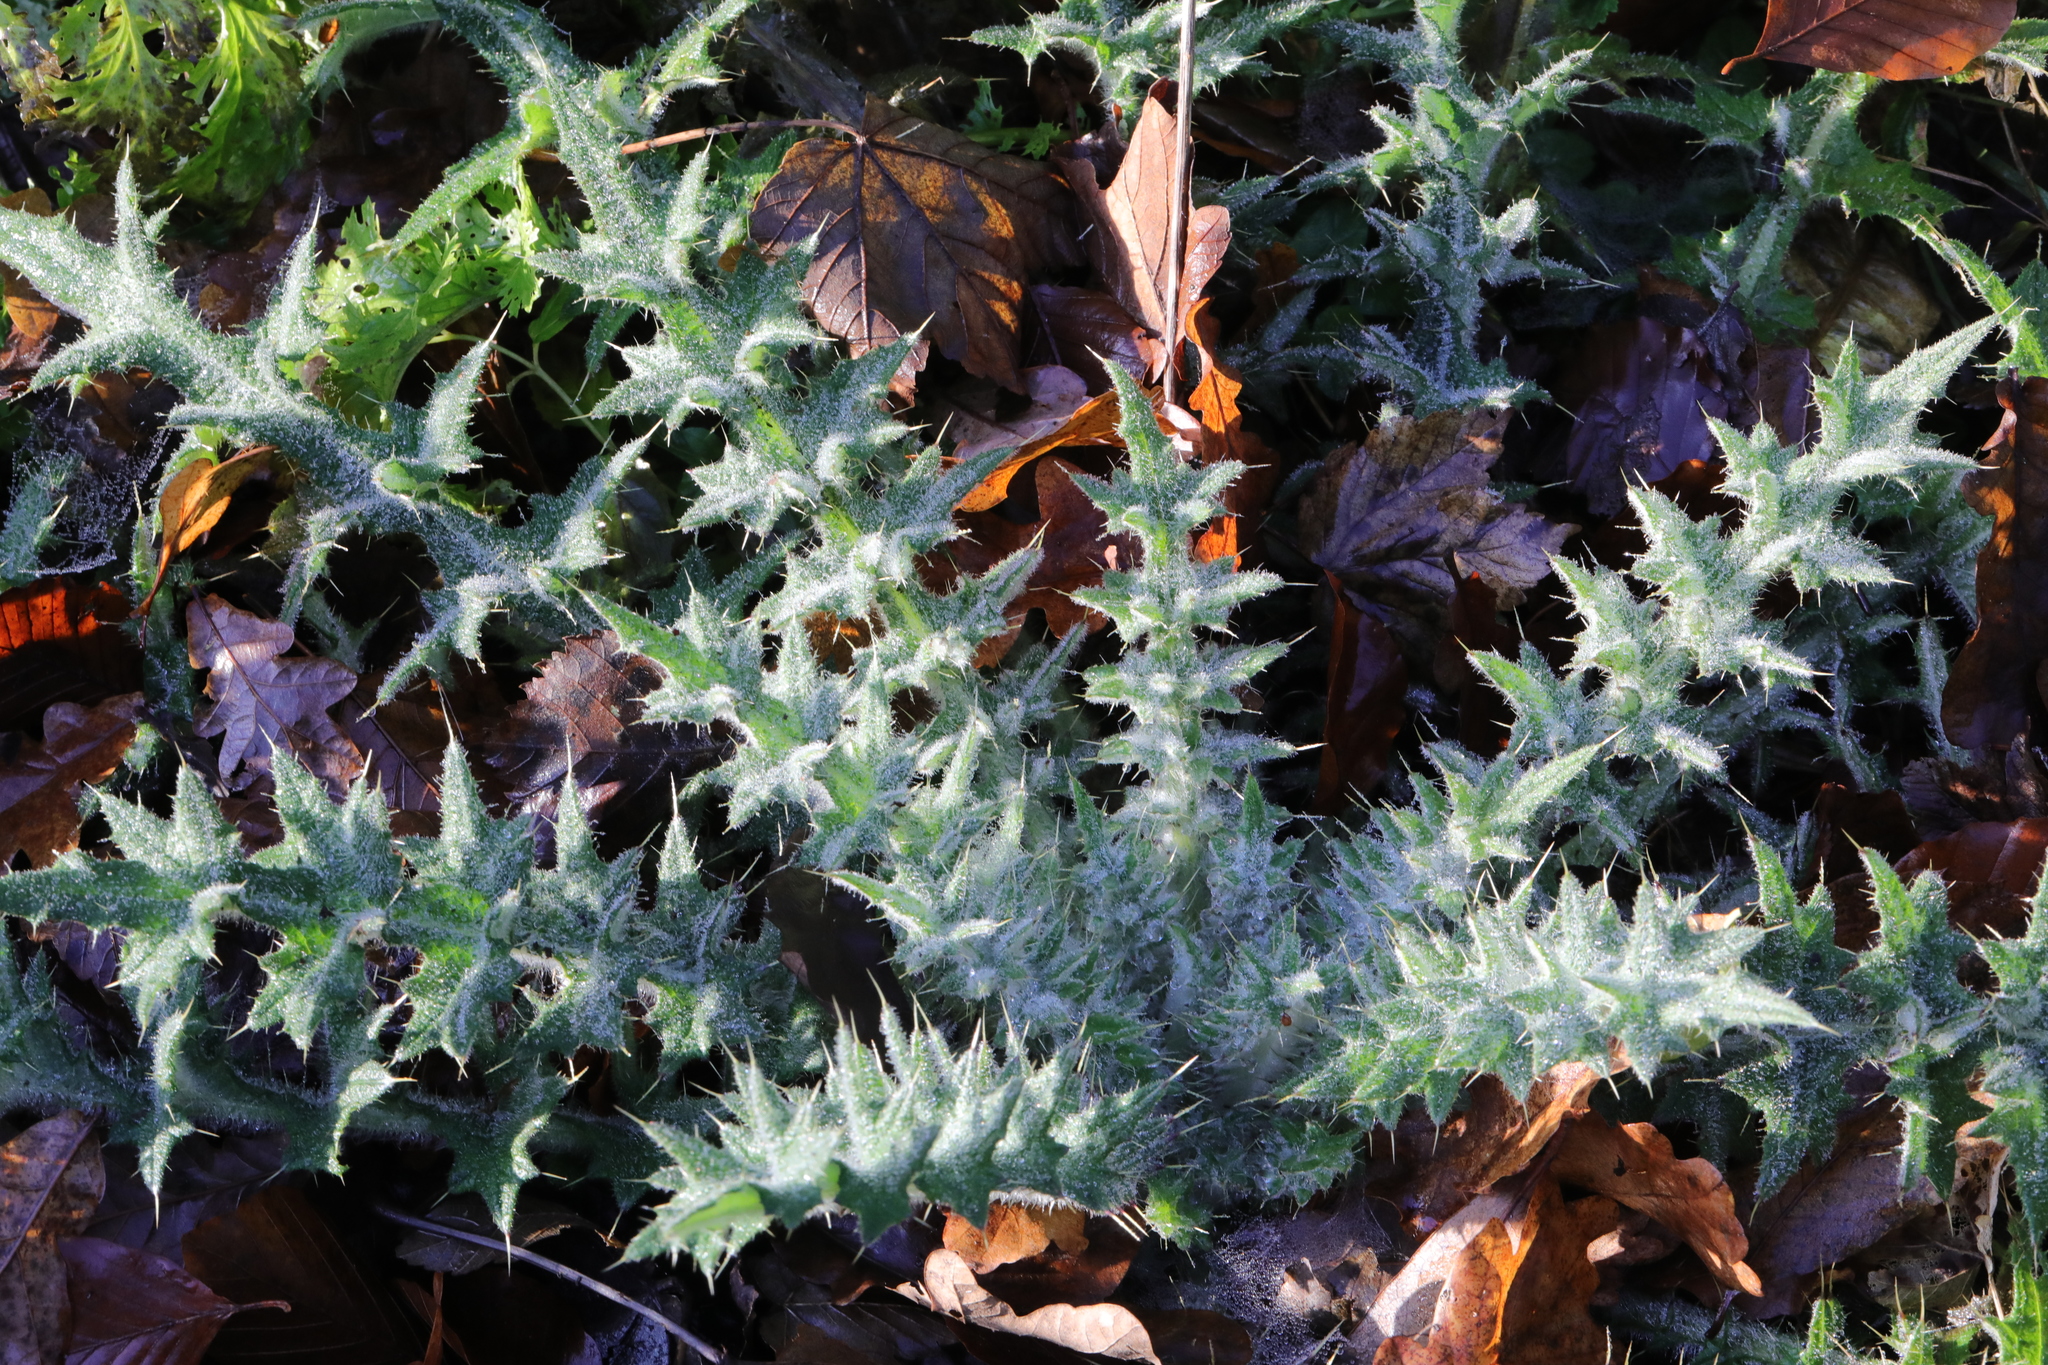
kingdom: Plantae
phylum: Tracheophyta
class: Magnoliopsida
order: Asterales
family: Asteraceae
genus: Cirsium
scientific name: Cirsium vulgare
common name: Bull thistle
